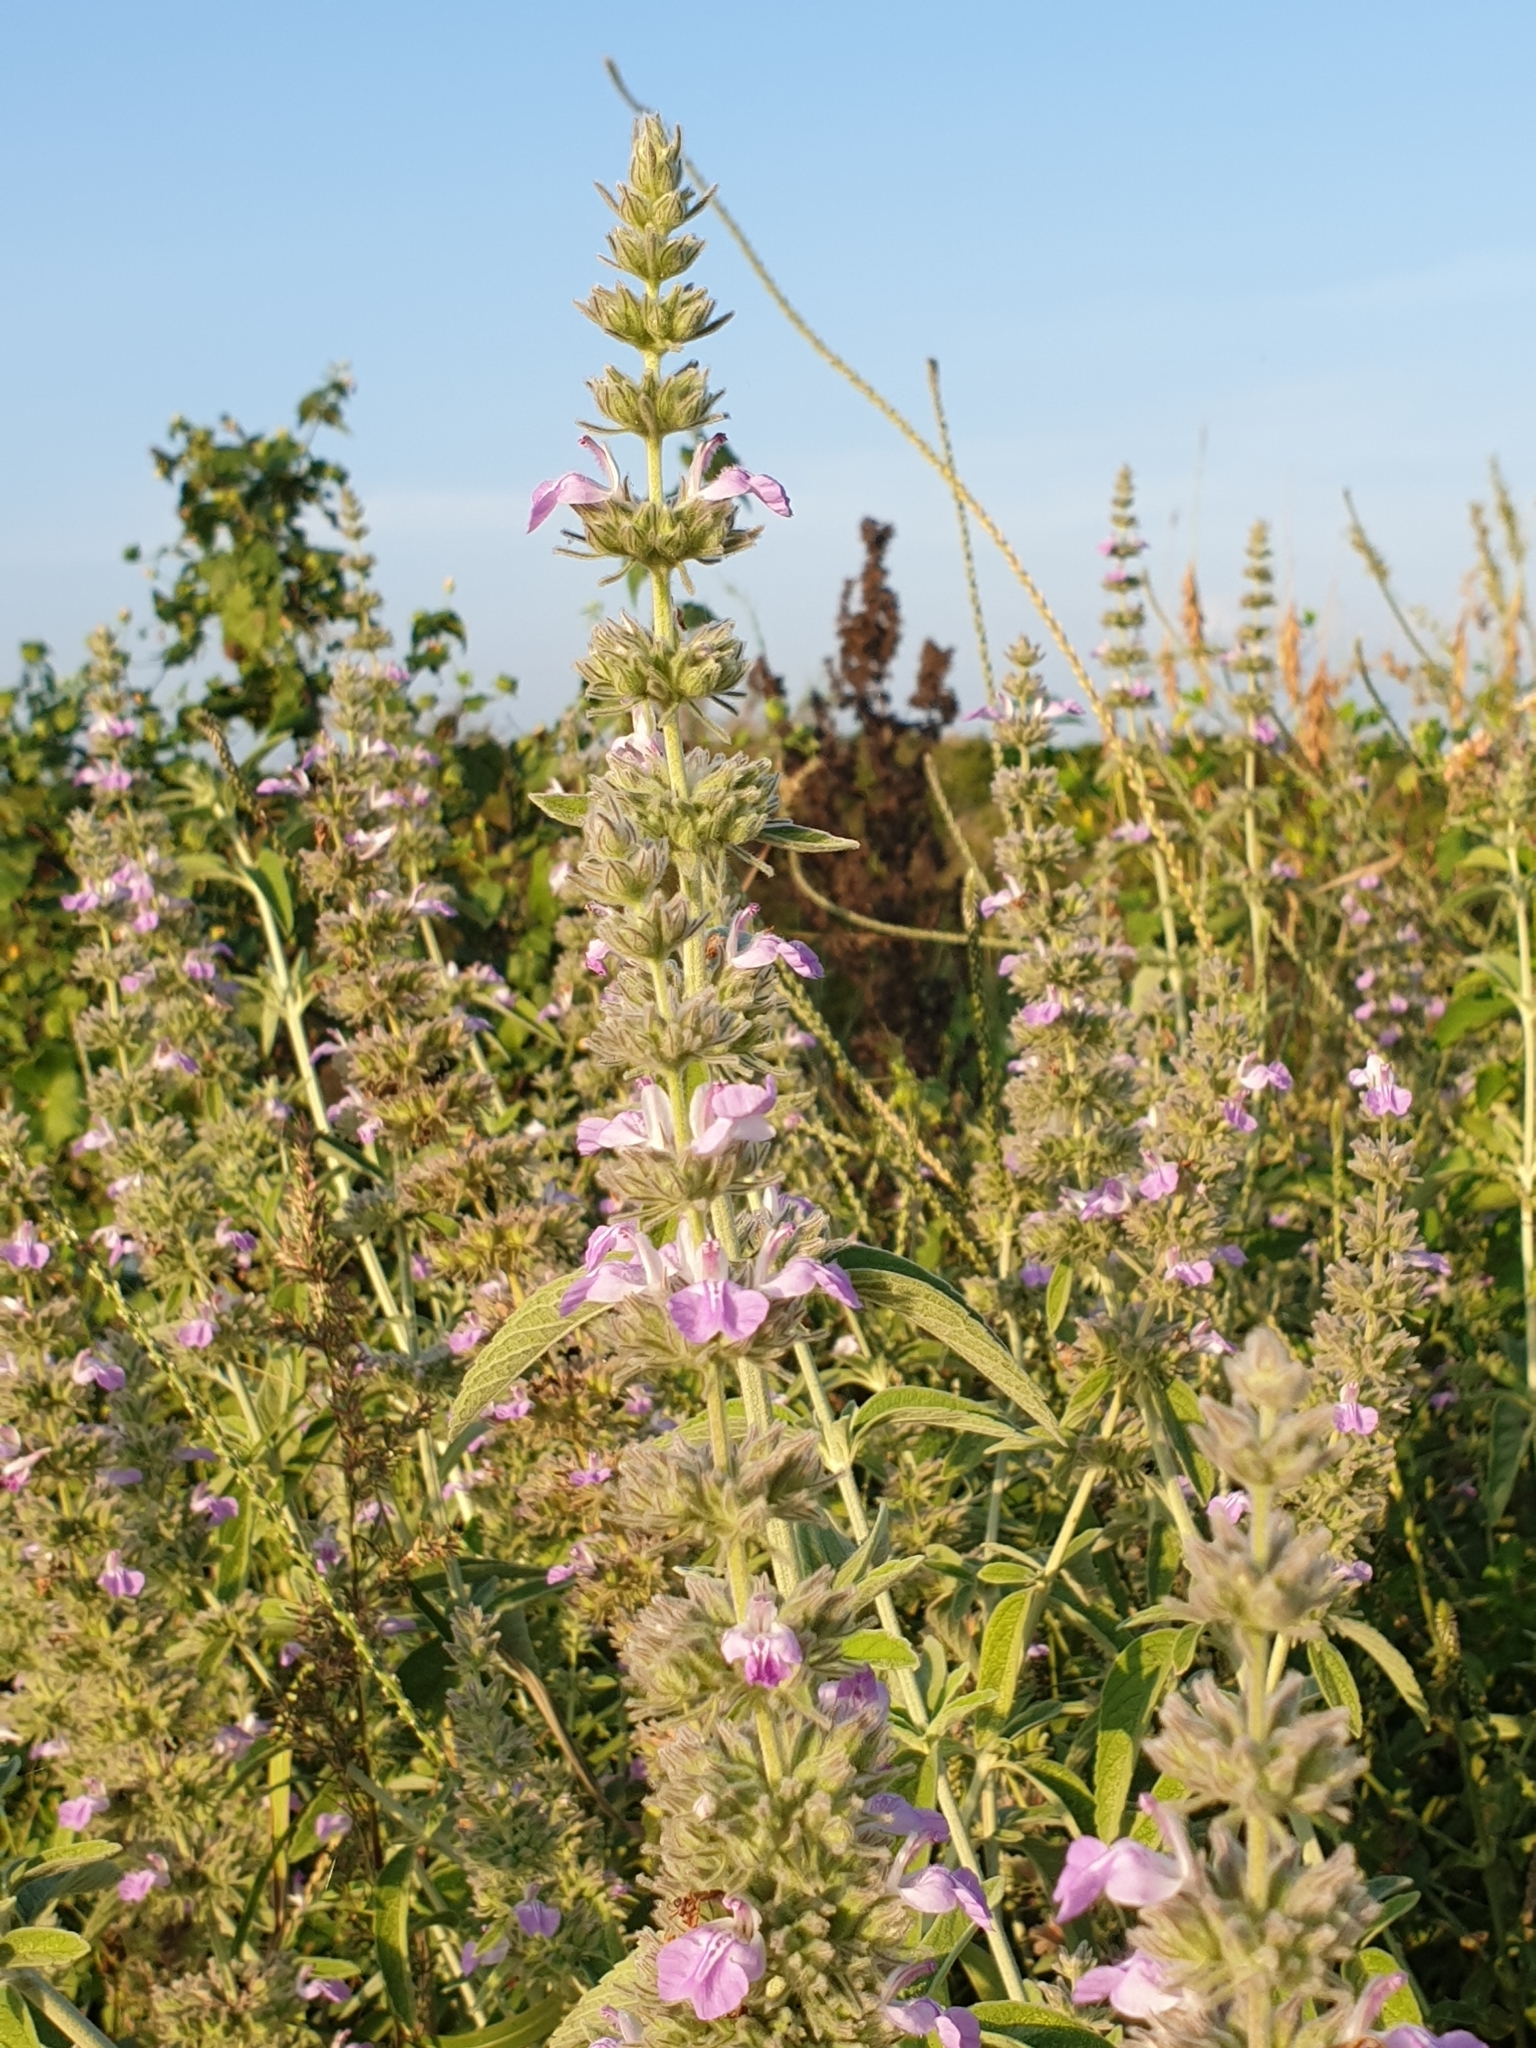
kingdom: Plantae
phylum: Tracheophyta
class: Magnoliopsida
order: Lamiales
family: Lamiaceae
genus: Anisomeles
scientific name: Anisomeles malabarica
